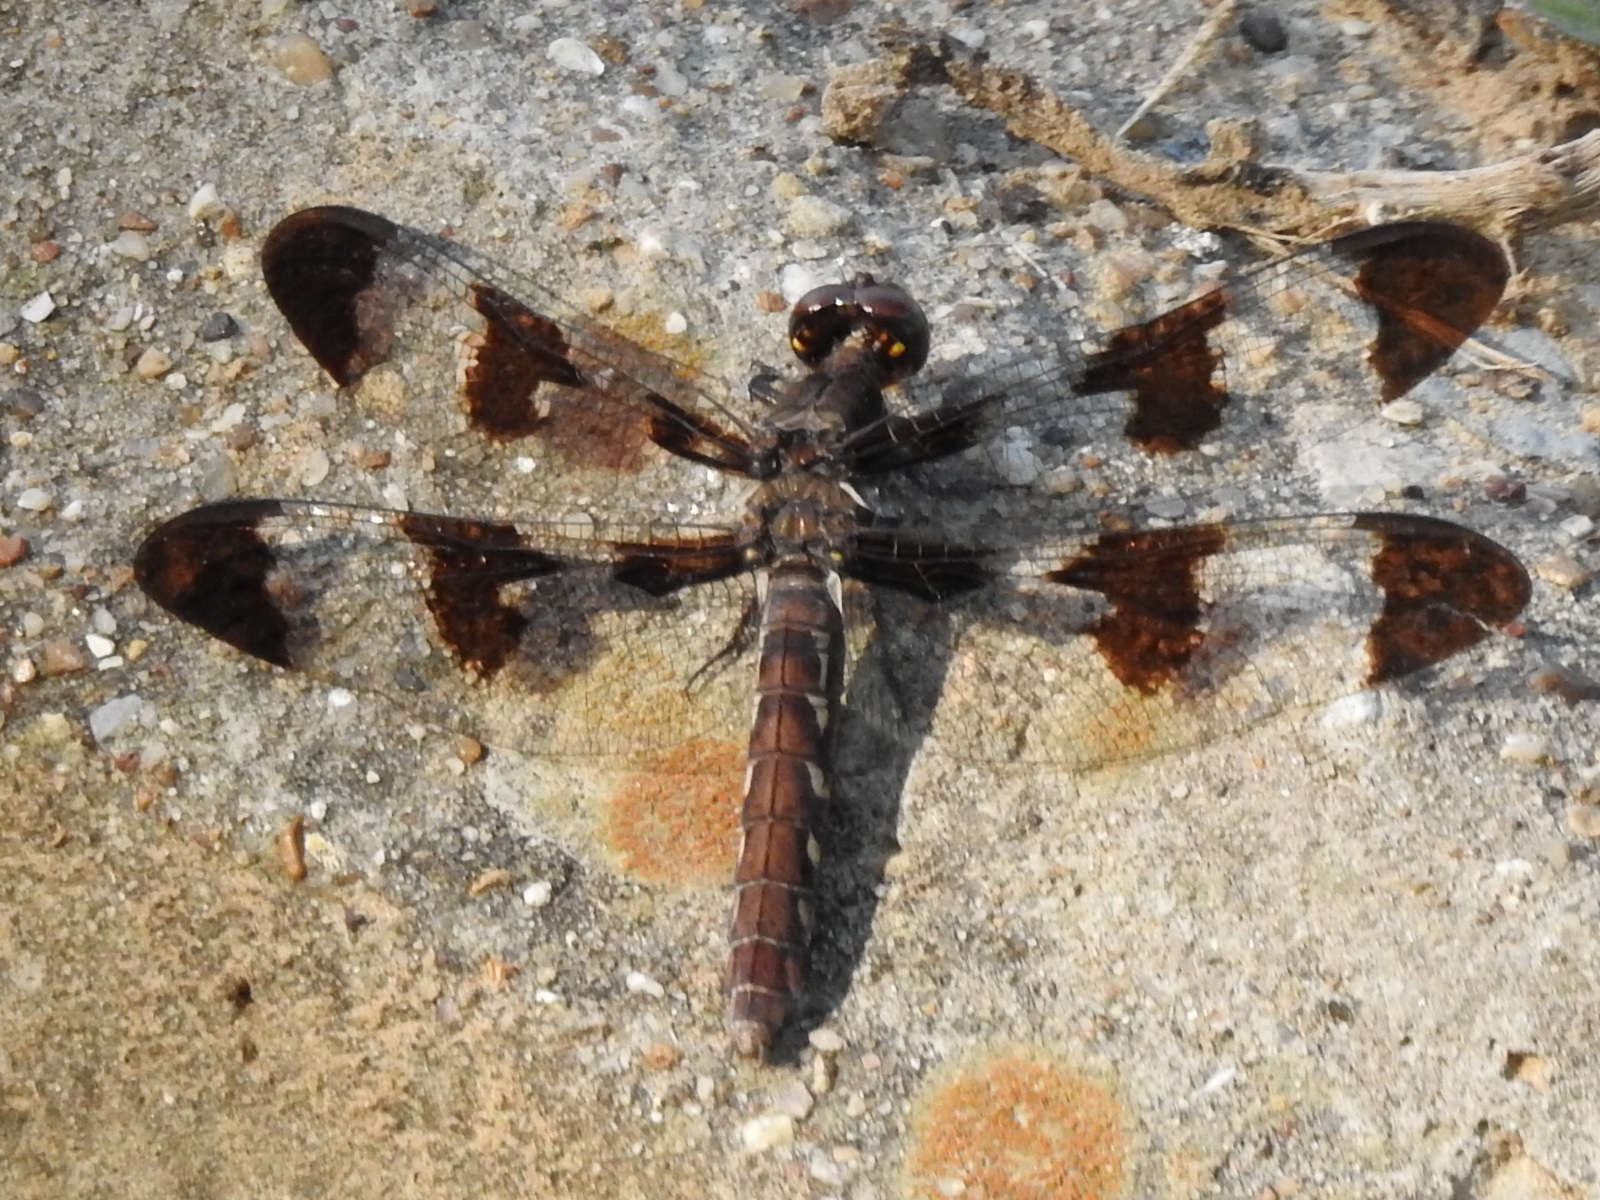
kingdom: Animalia
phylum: Arthropoda
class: Insecta
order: Odonata
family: Libellulidae
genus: Plathemis
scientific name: Plathemis lydia
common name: Common whitetail
